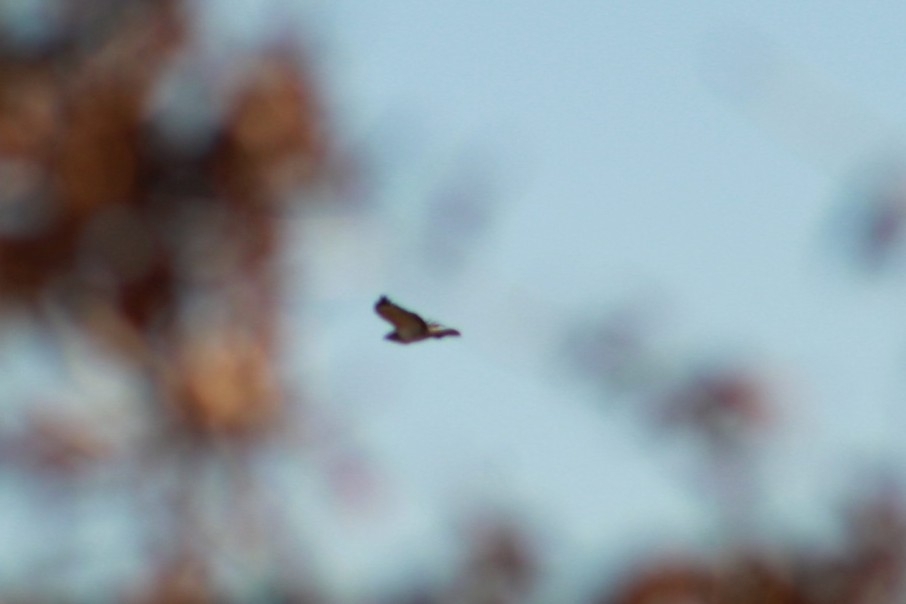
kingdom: Animalia
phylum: Chordata
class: Aves
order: Accipitriformes
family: Accipitridae
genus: Buteo
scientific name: Buteo buteo
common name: Common buzzard
